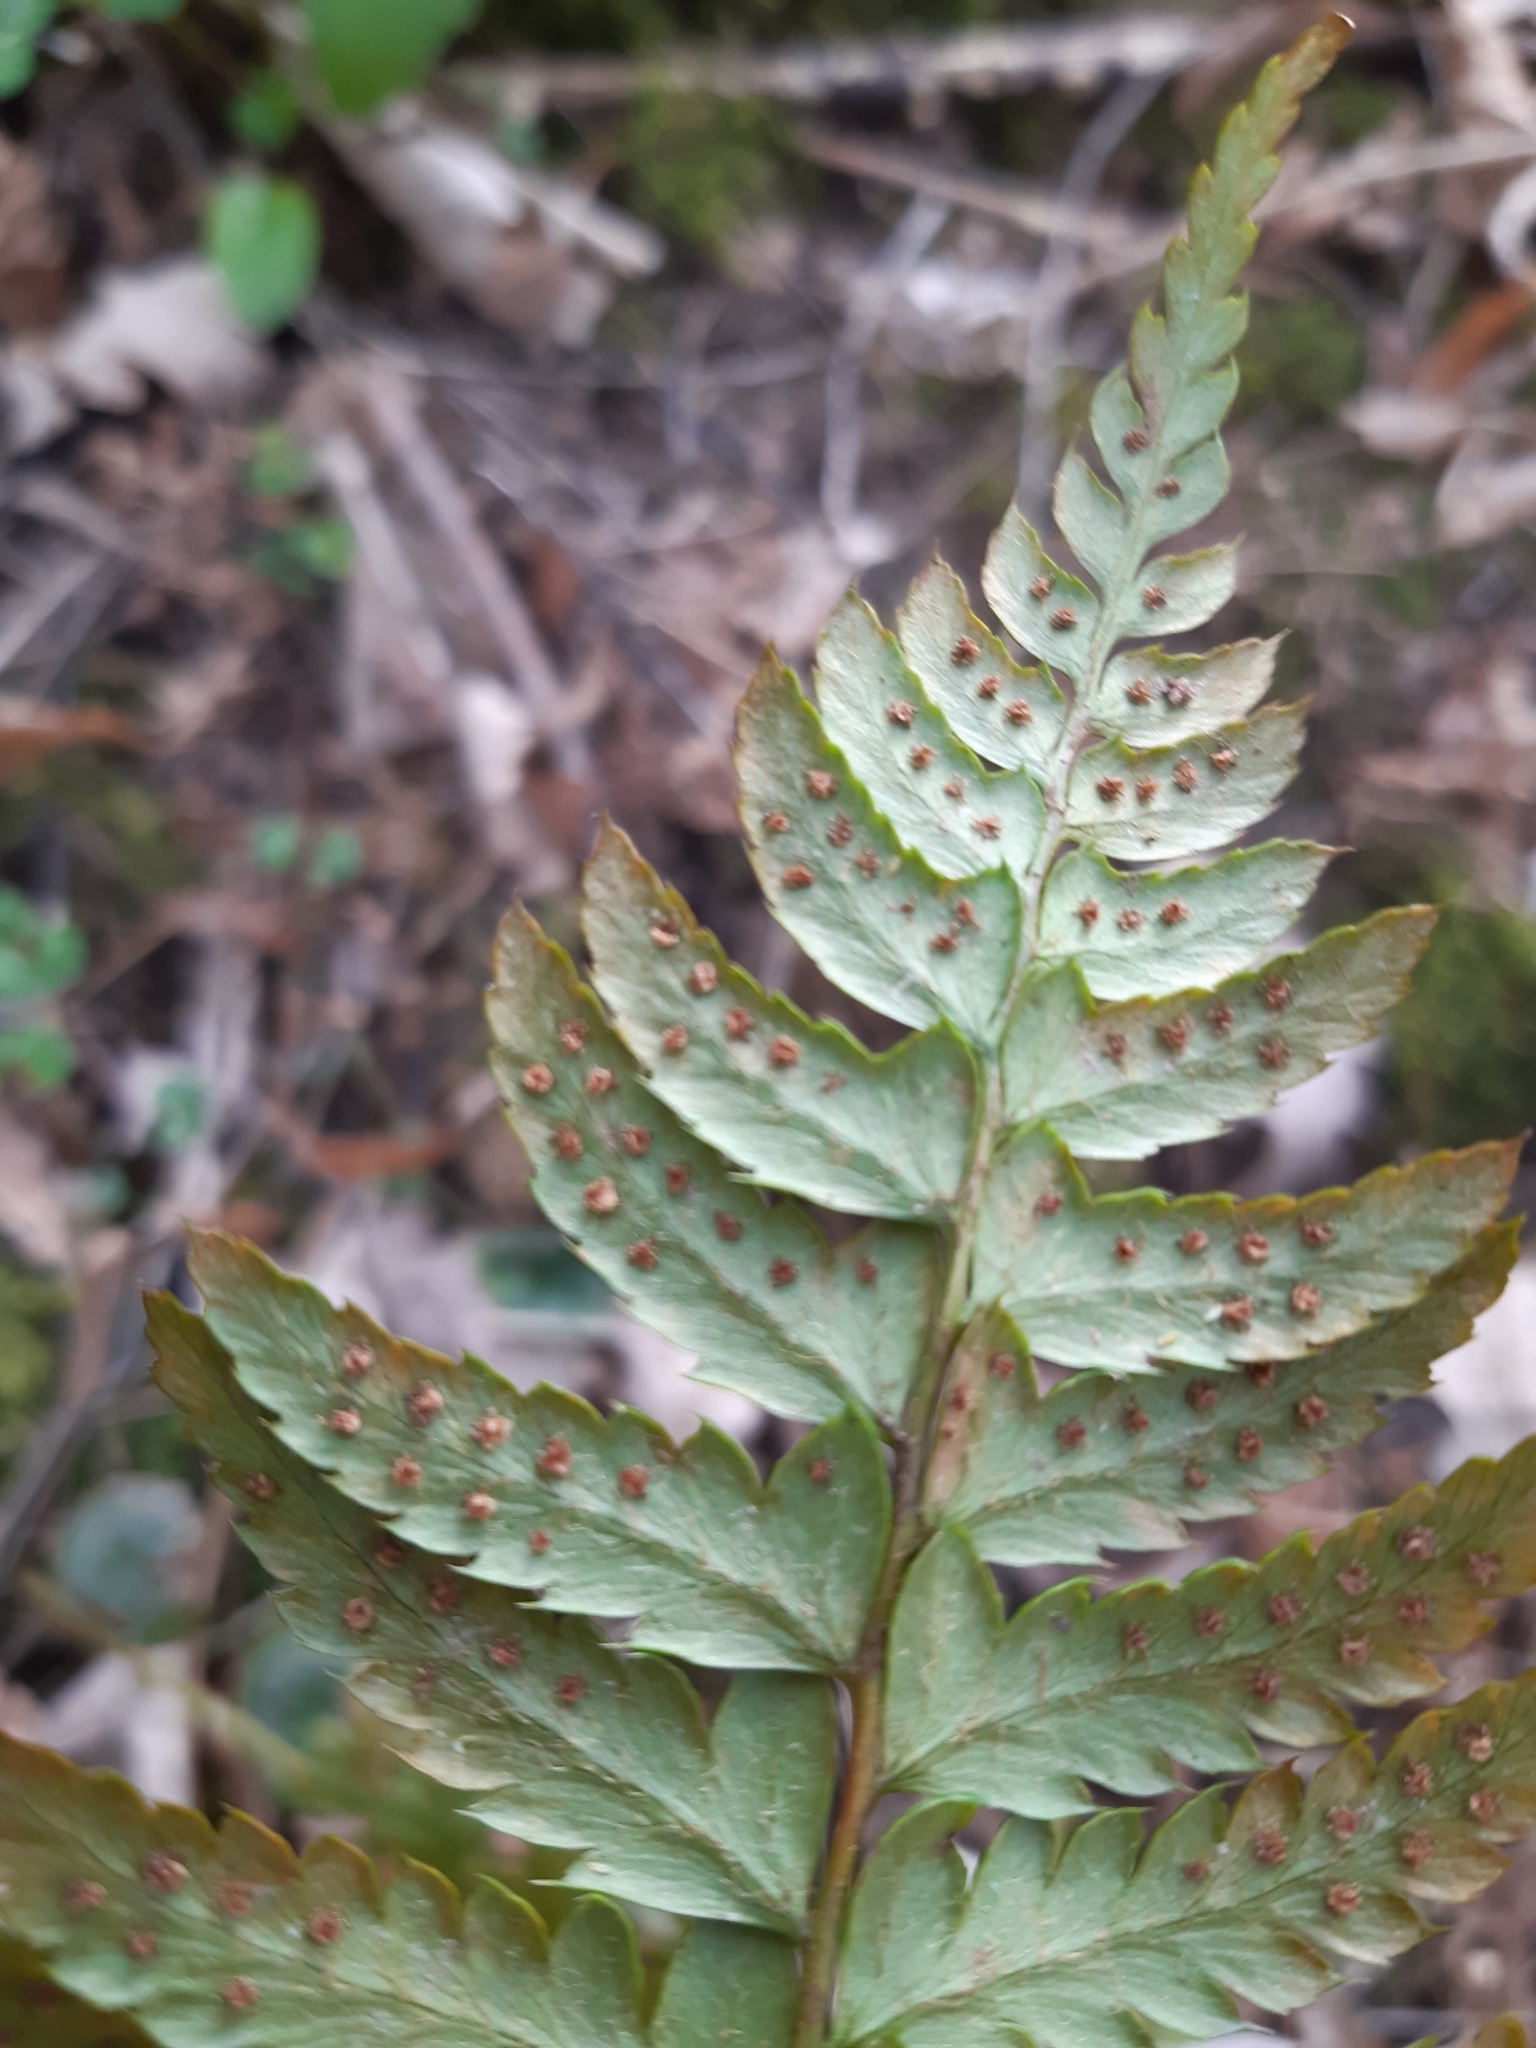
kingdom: Plantae
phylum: Tracheophyta
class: Polypodiopsida
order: Polypodiales
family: Dryopteridaceae
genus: Polystichum
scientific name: Polystichum aculeatum
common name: Hard shield-fern
